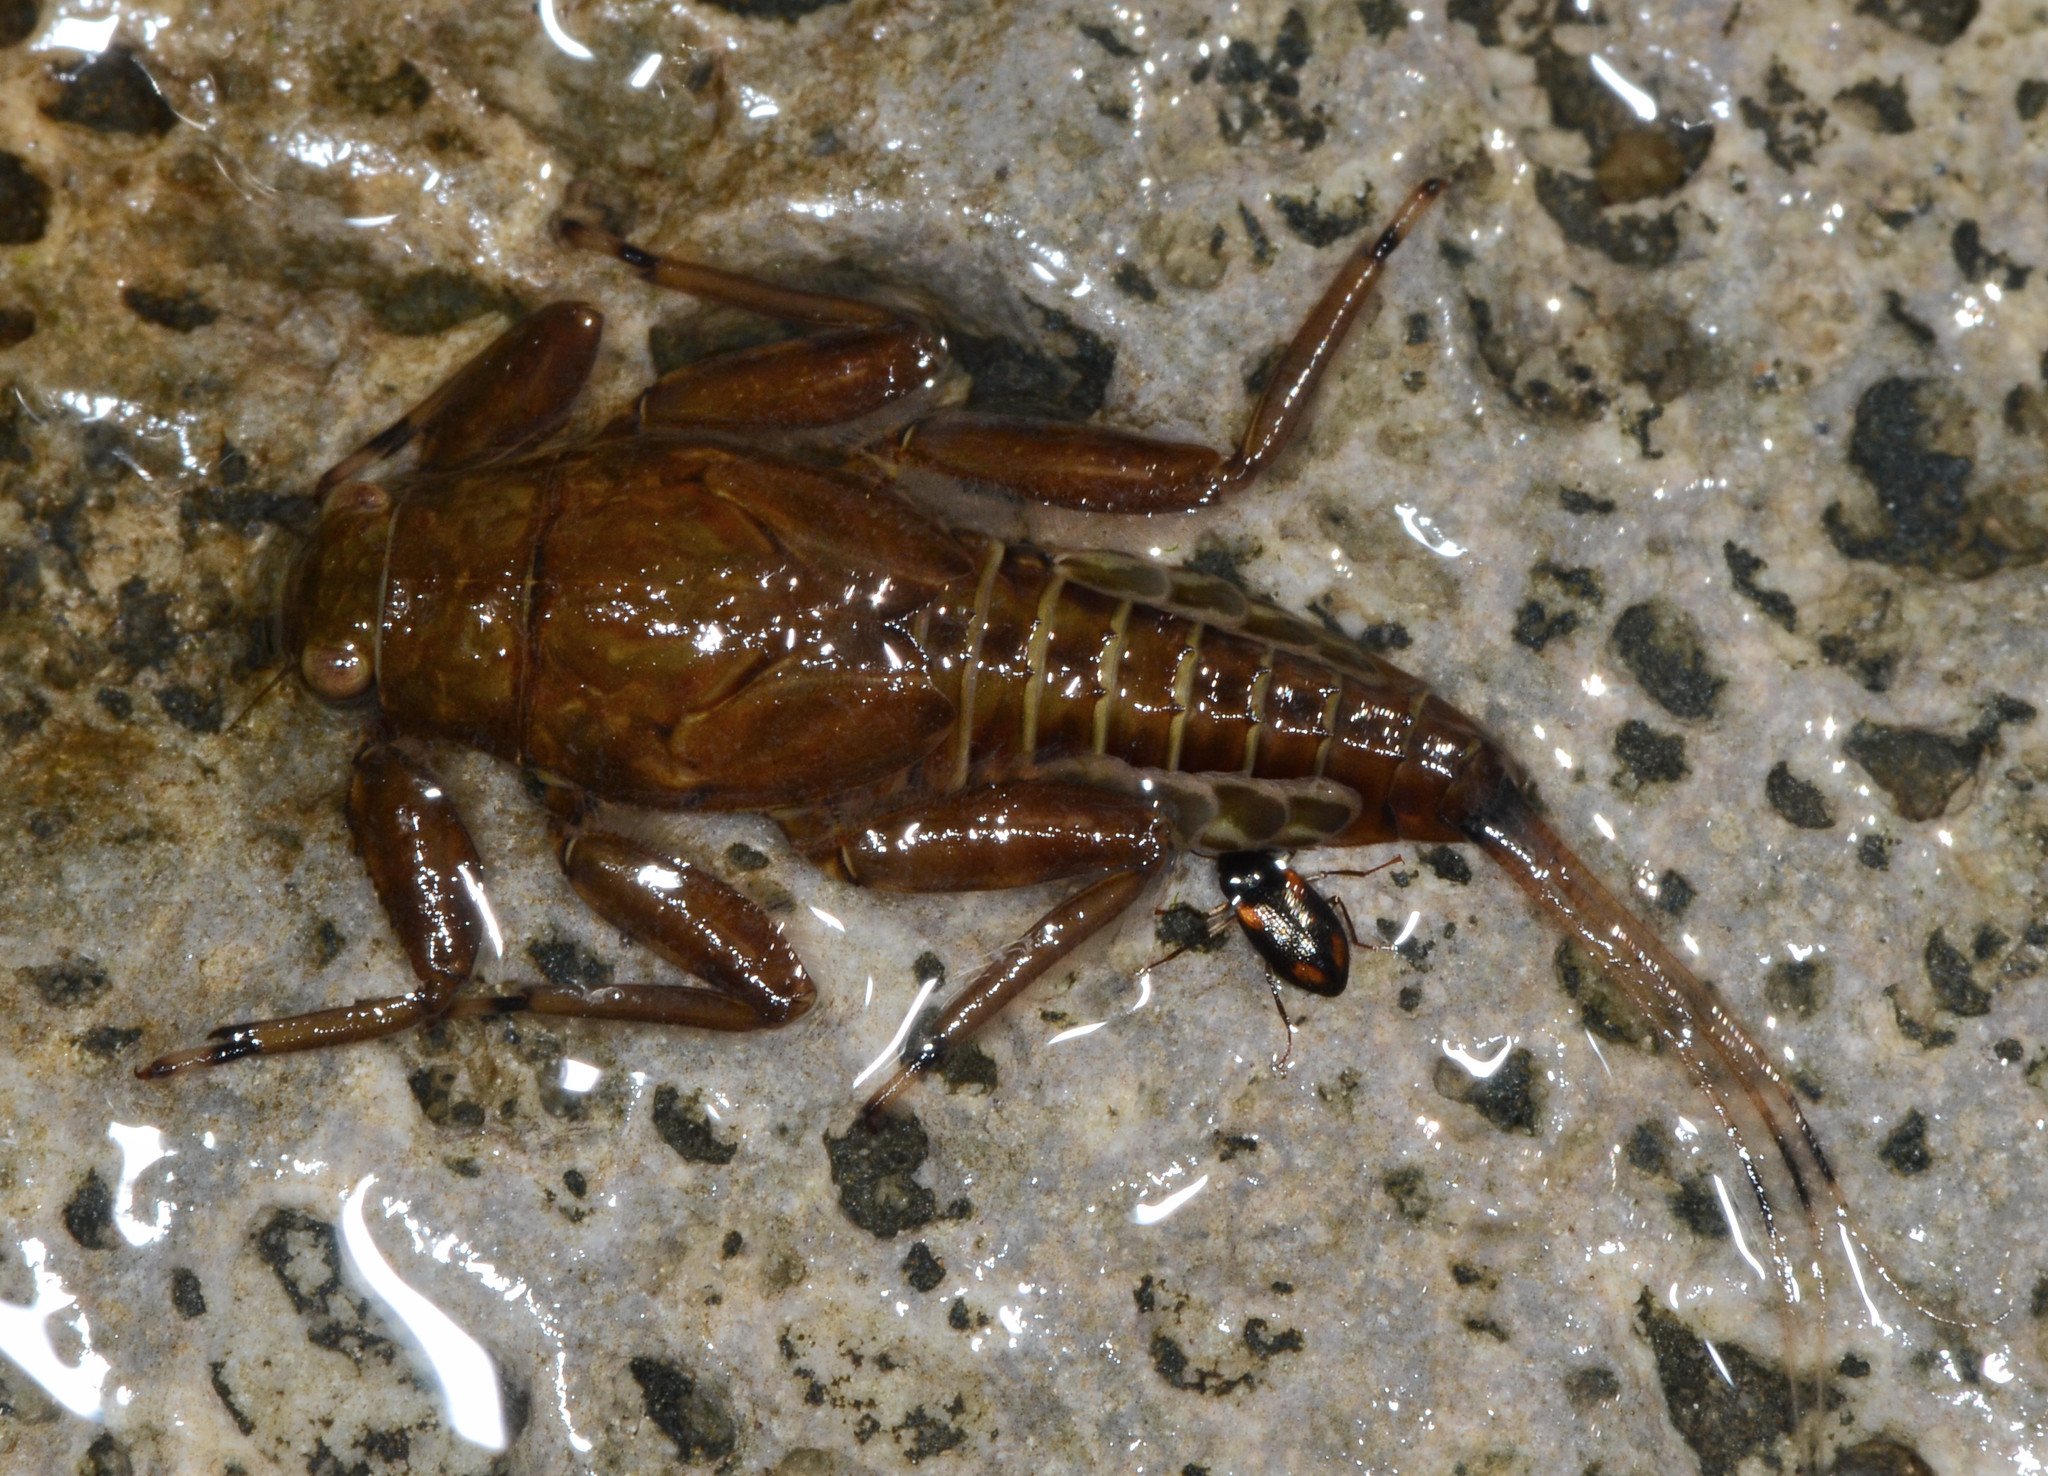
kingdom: Animalia
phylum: Arthropoda
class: Insecta
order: Ephemeroptera
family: Ephemerellidae
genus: Drunella
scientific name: Drunella doddsi
